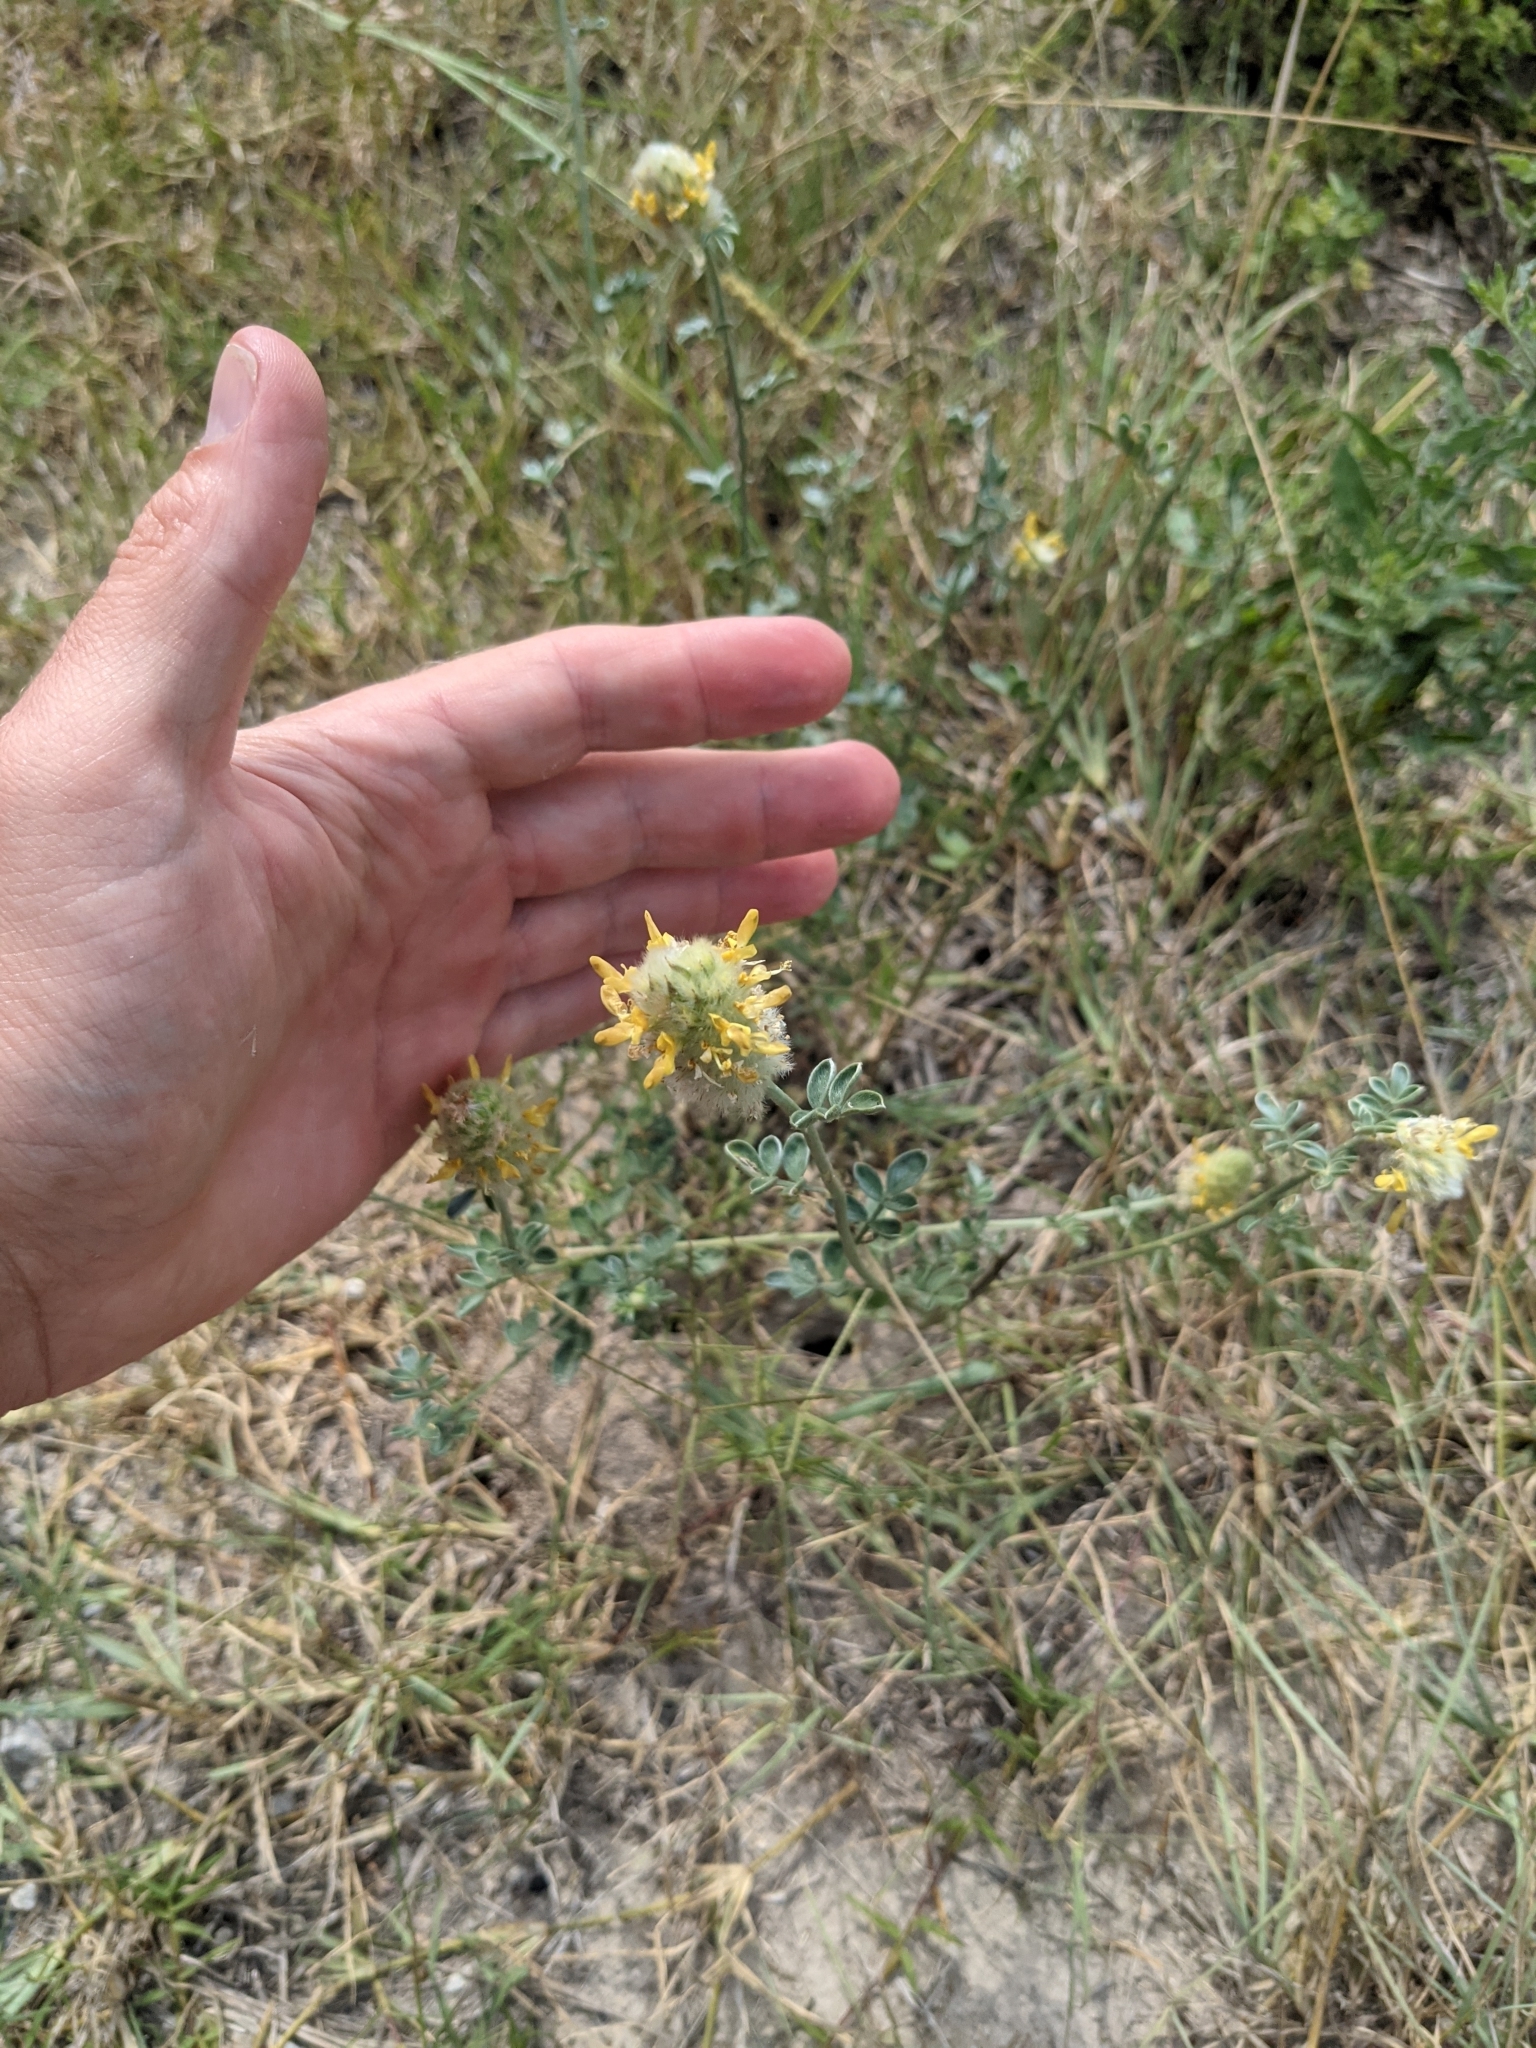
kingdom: Plantae
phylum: Tracheophyta
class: Magnoliopsida
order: Fabales
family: Fabaceae
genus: Dalea
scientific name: Dalea aurea
